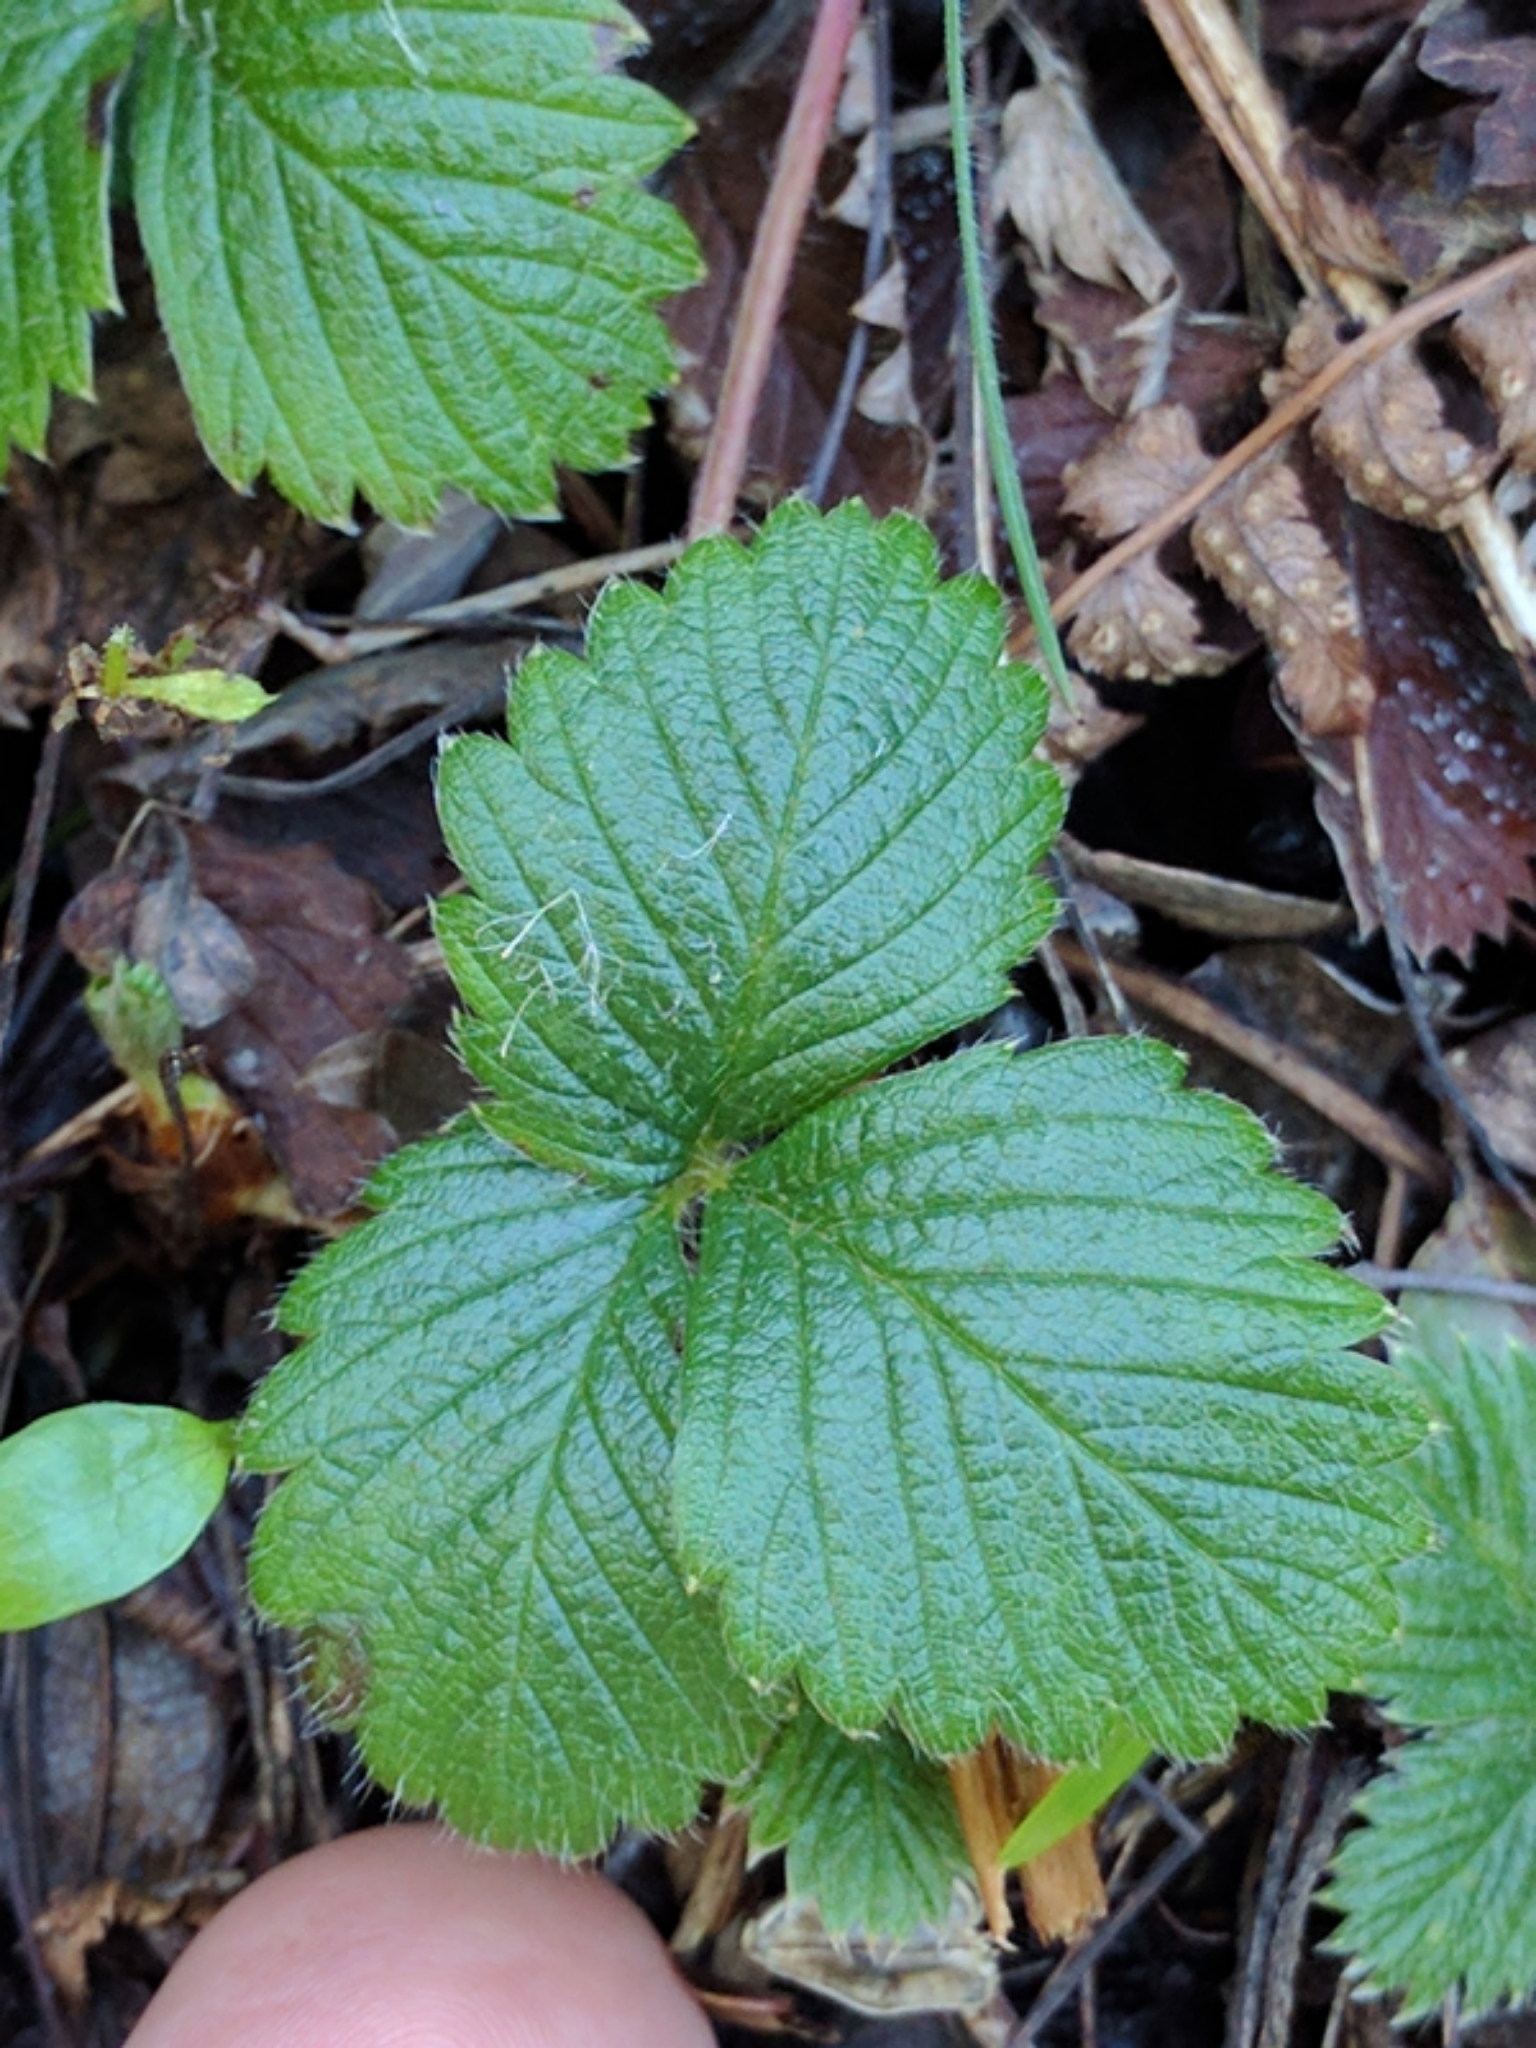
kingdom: Plantae
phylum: Tracheophyta
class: Magnoliopsida
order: Rosales
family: Rosaceae
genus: Fragaria
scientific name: Fragaria vesca
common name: Wild strawberry
